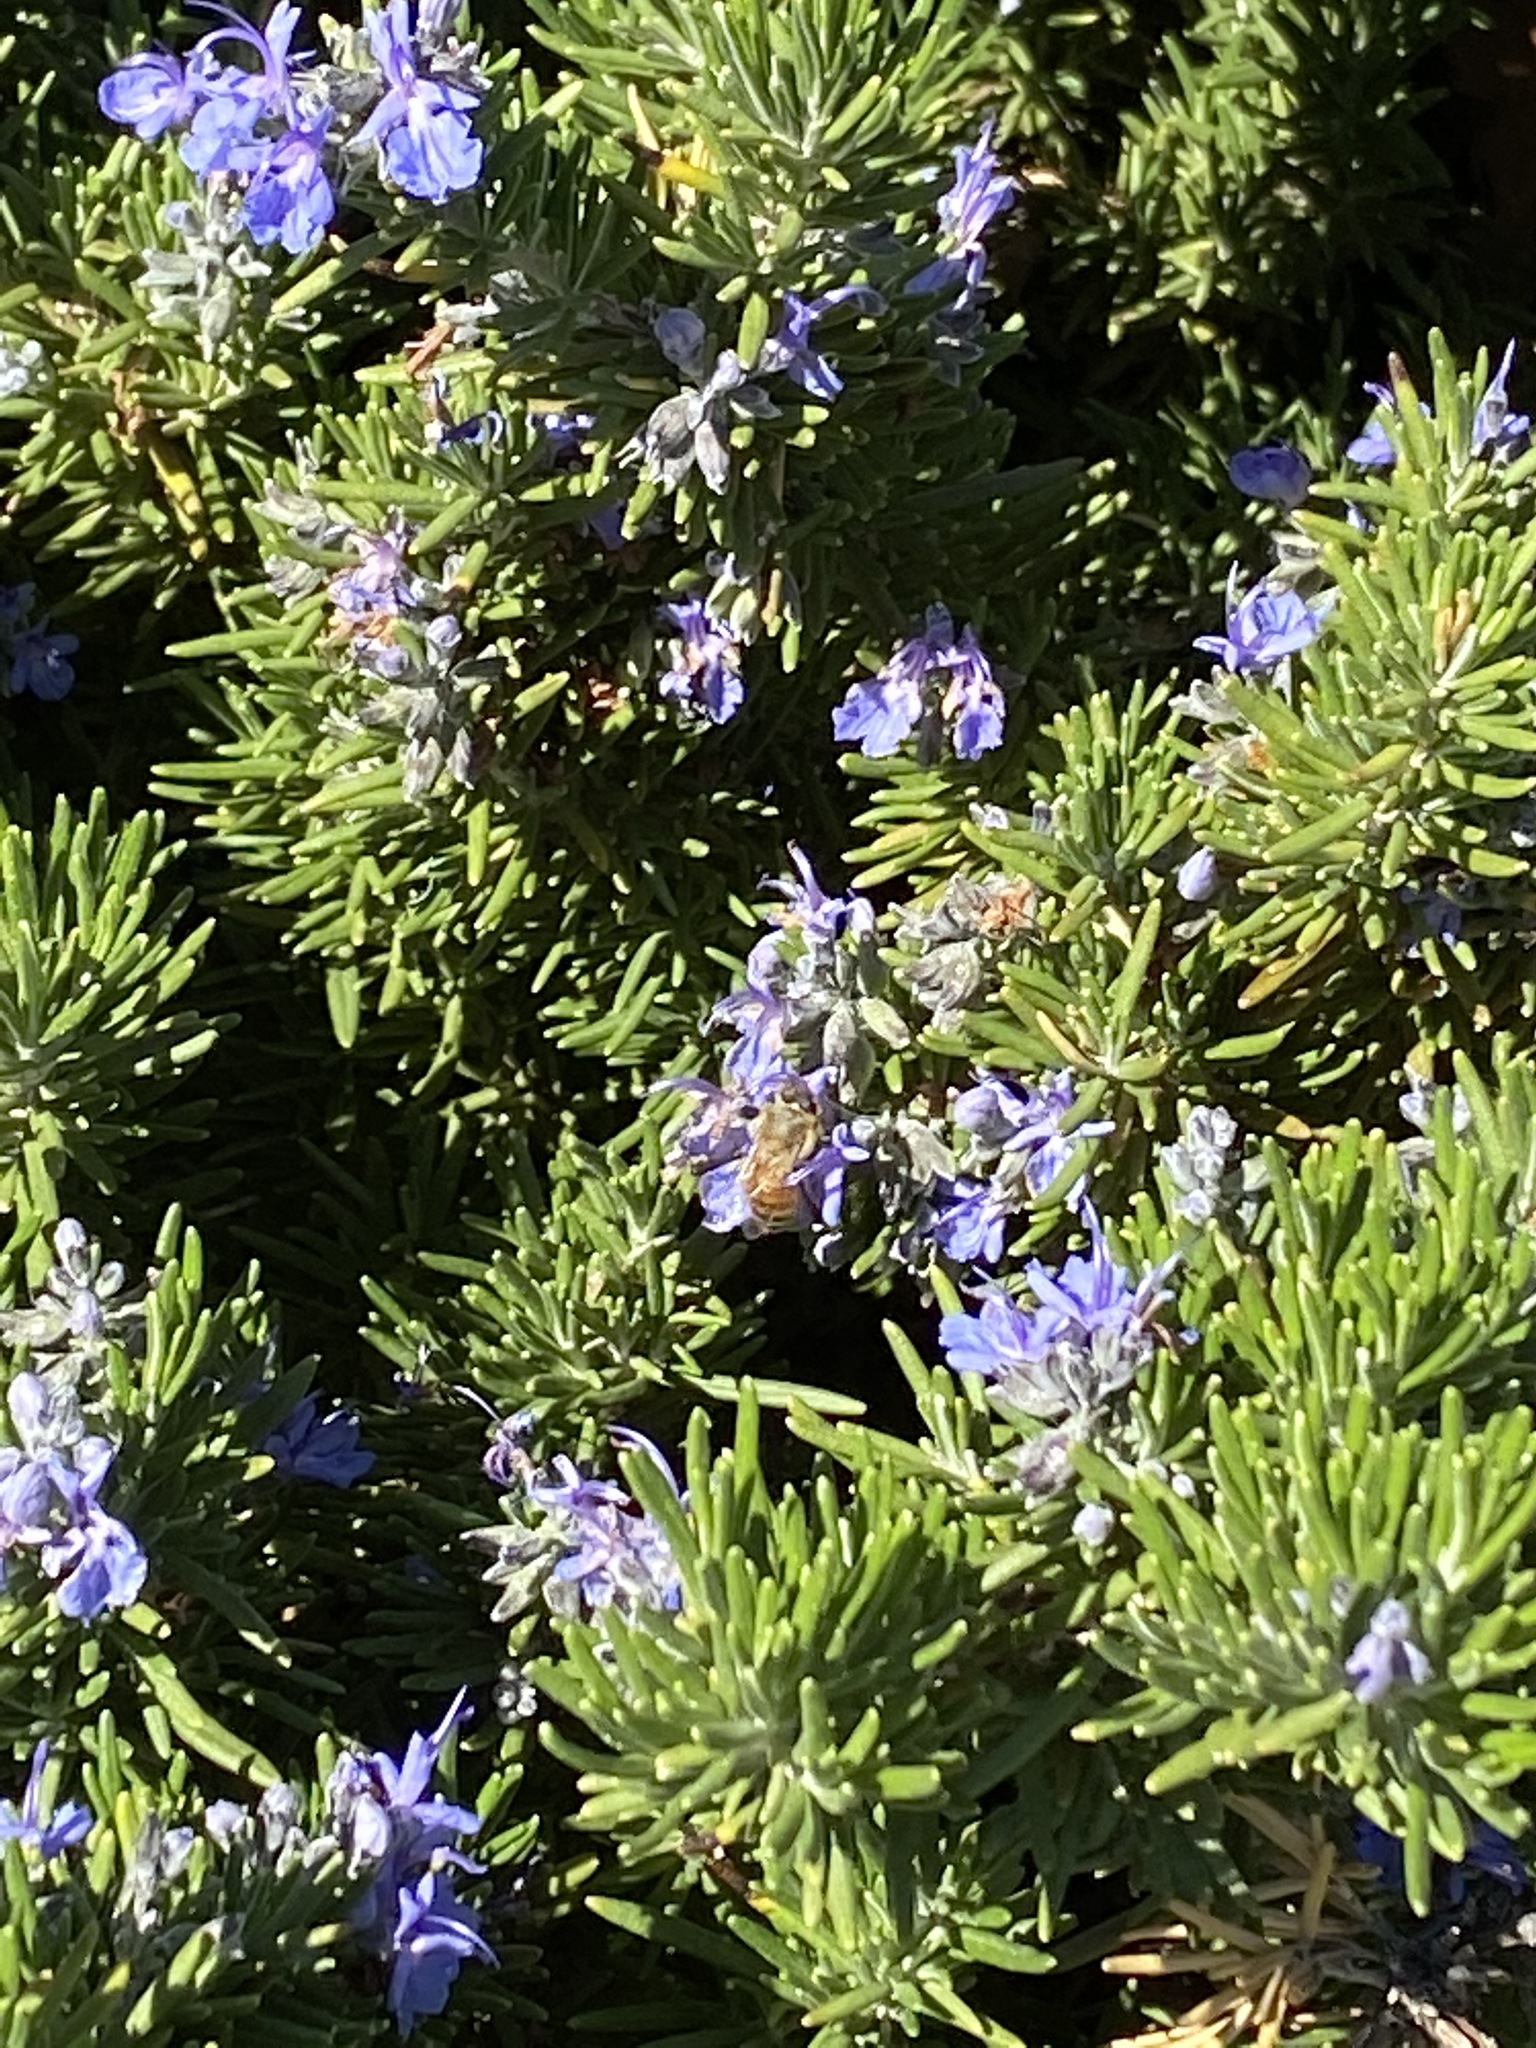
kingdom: Animalia
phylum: Arthropoda
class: Insecta
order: Hymenoptera
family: Apidae
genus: Apis
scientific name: Apis mellifera
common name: Honey bee
